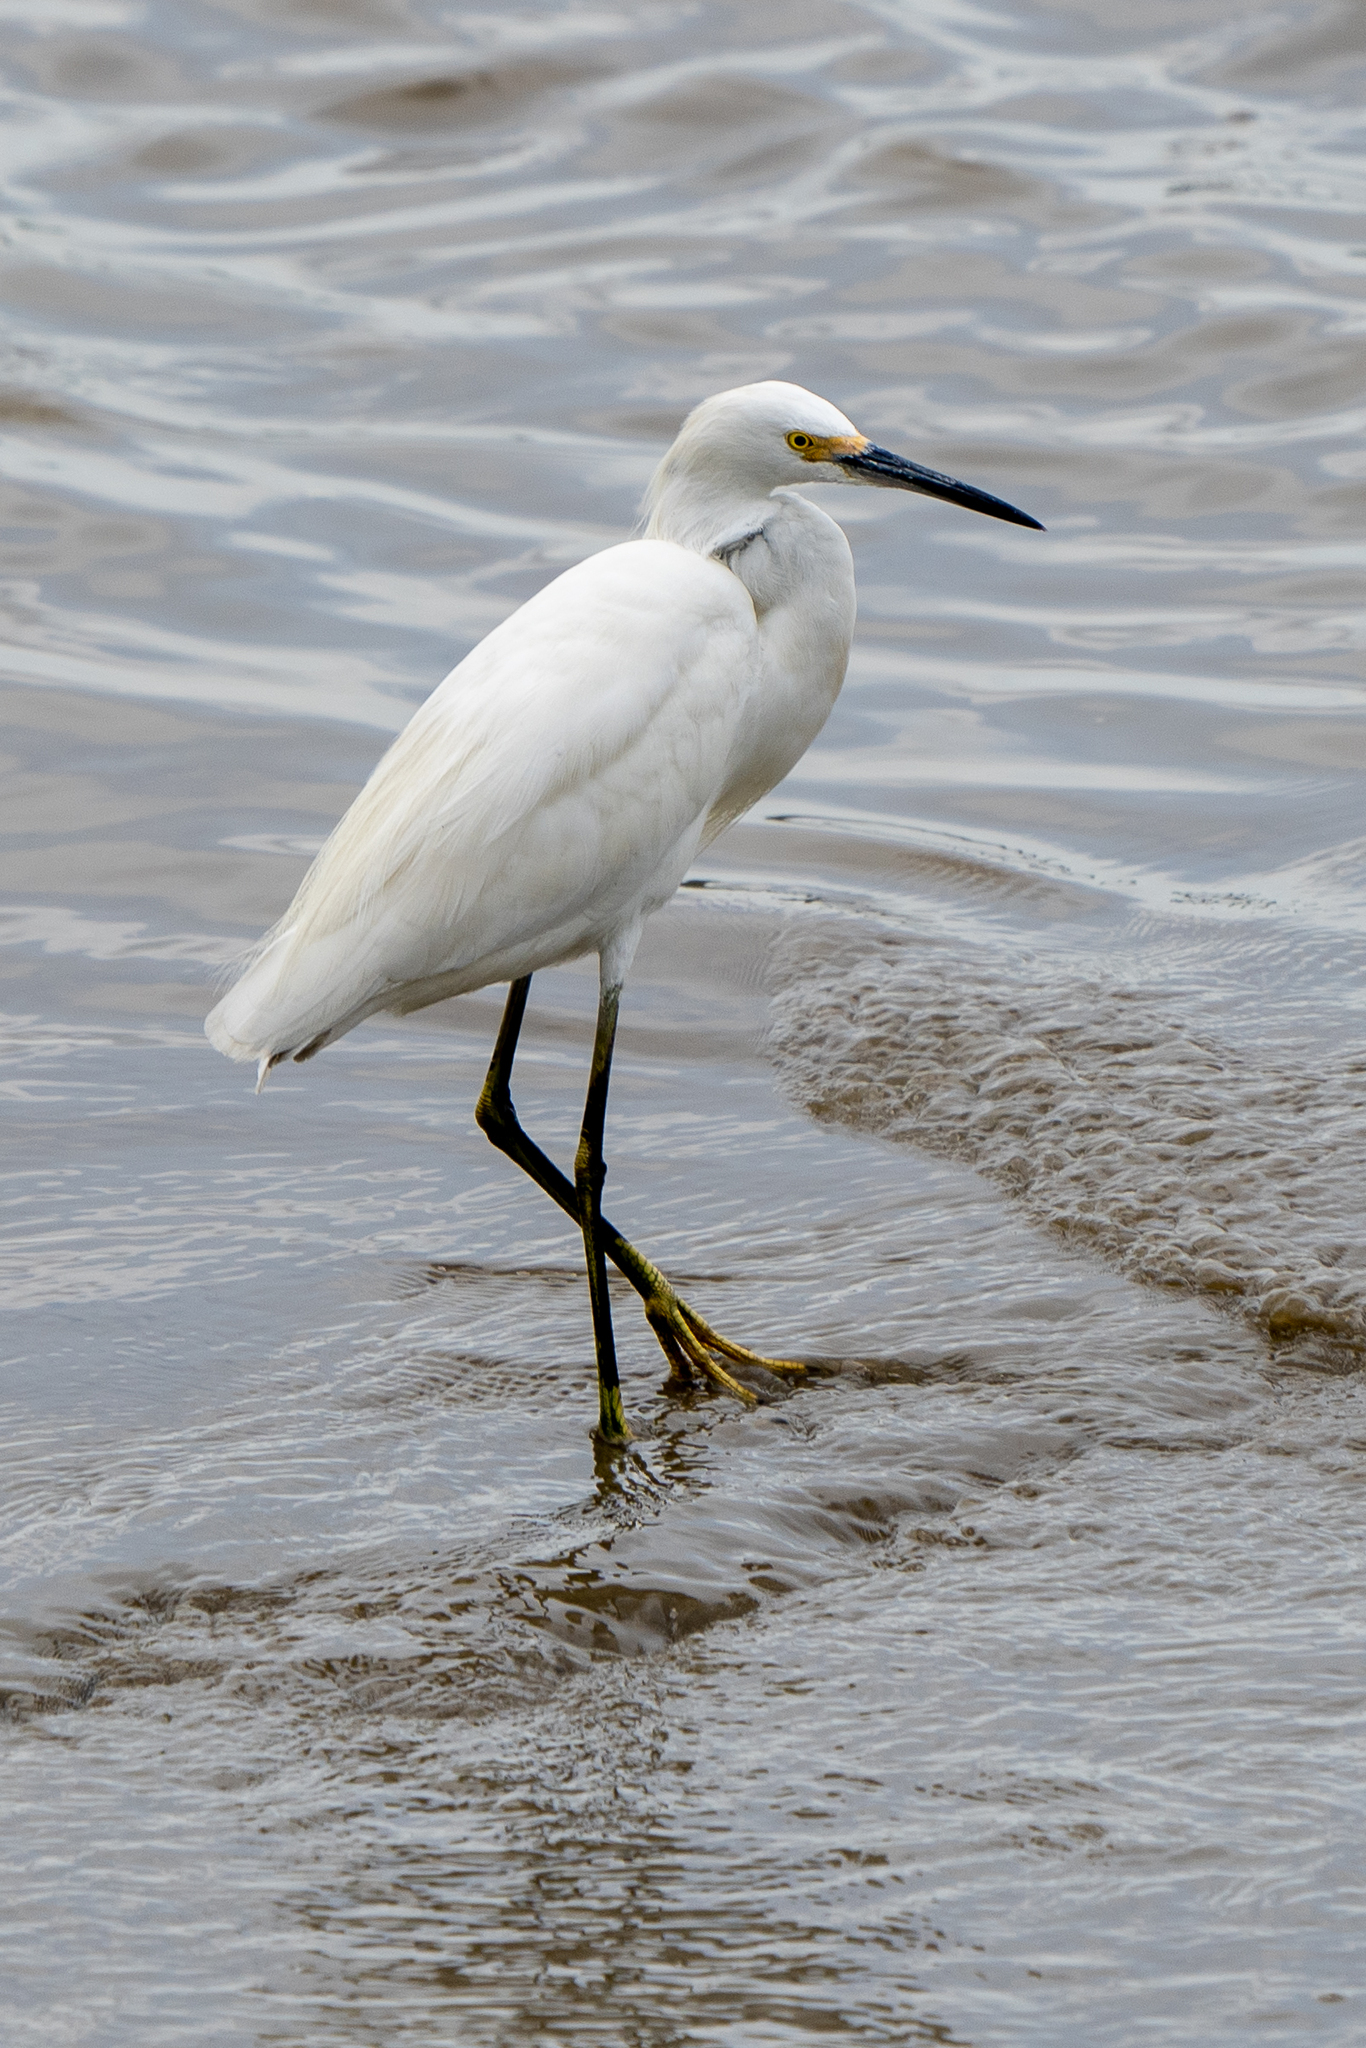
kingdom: Animalia
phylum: Chordata
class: Aves
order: Pelecaniformes
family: Ardeidae
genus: Egretta
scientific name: Egretta thula
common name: Snowy egret
